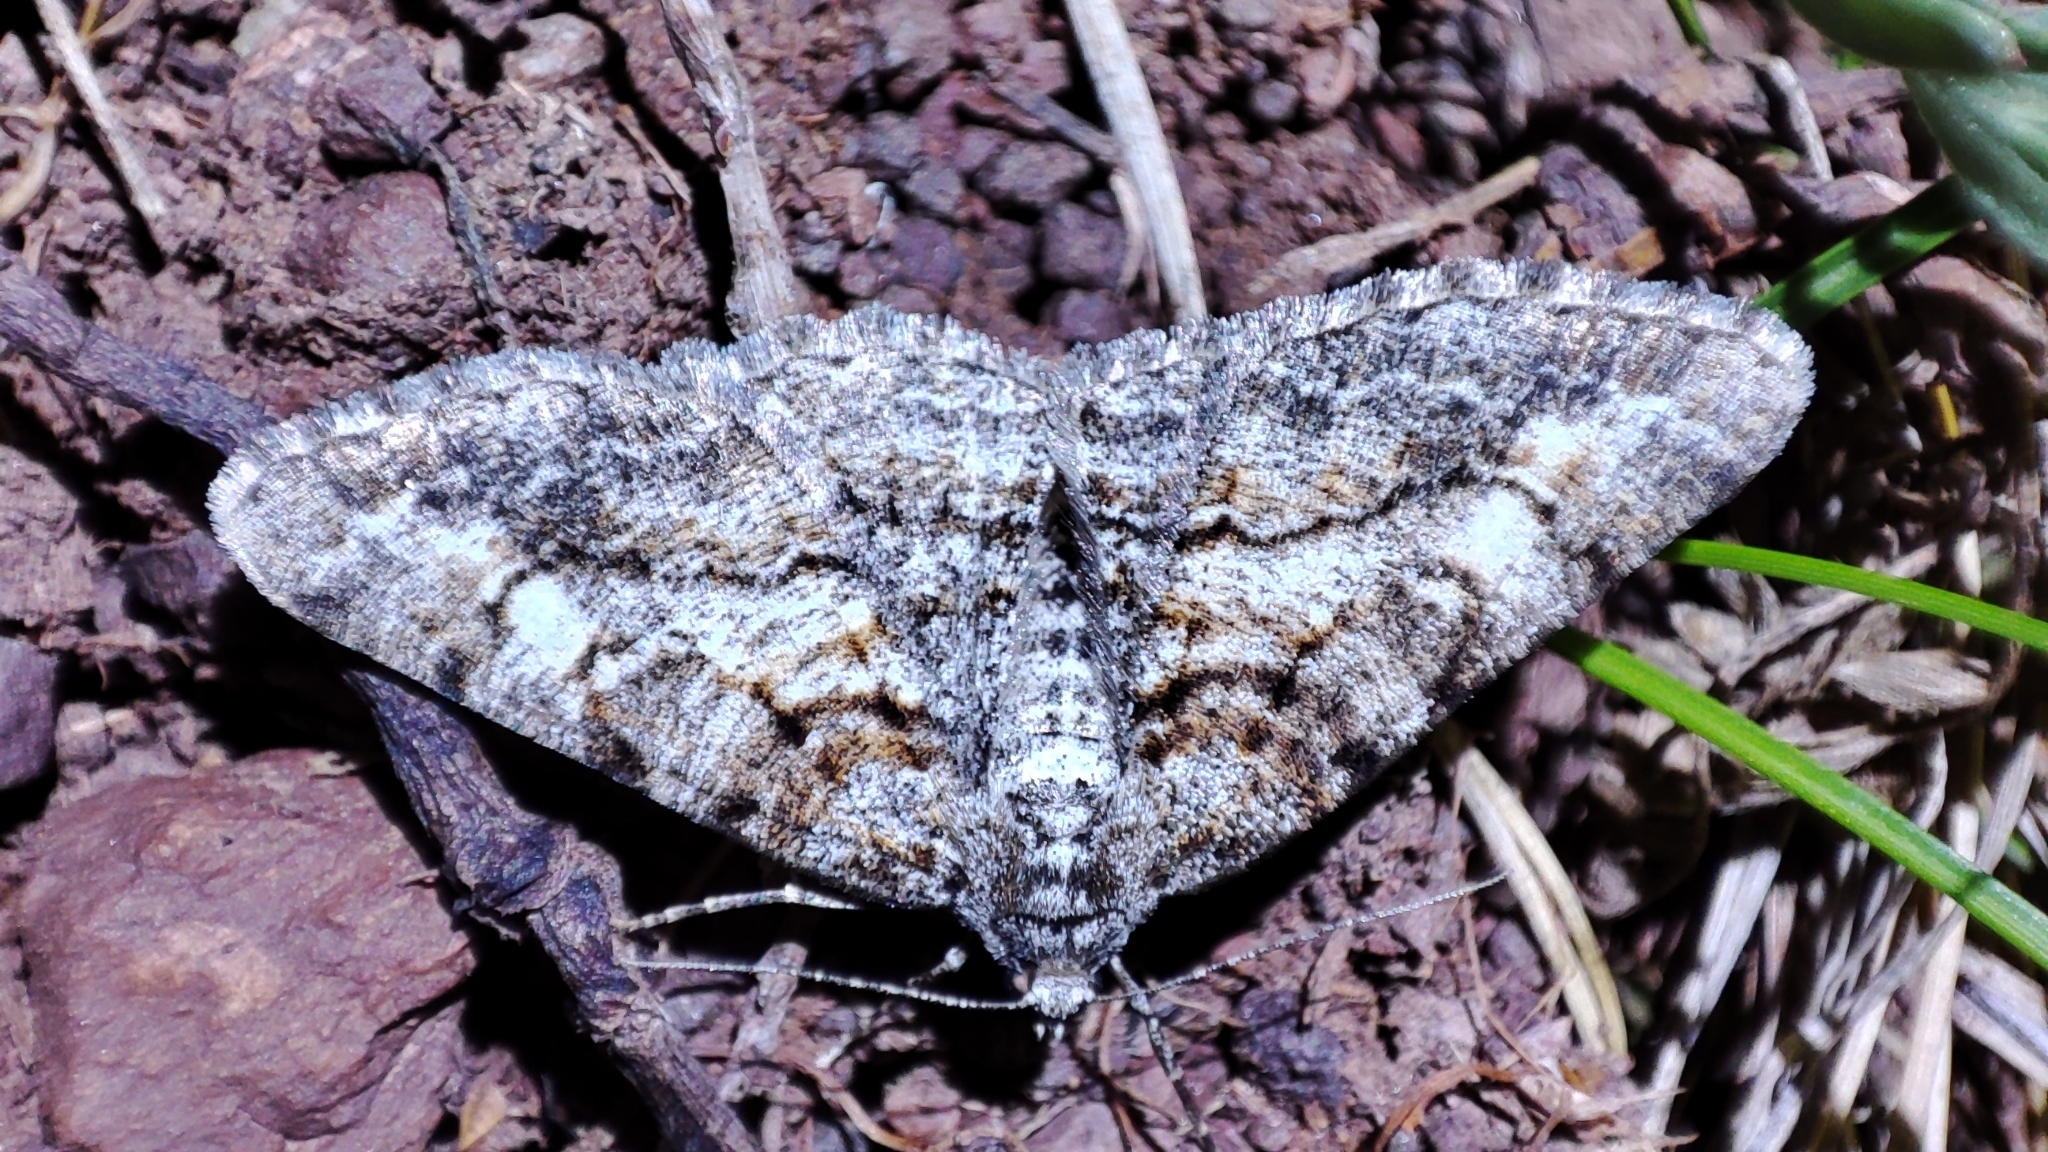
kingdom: Animalia
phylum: Arthropoda
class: Insecta
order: Lepidoptera
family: Geometridae
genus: Cleora
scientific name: Cleora cinctaria
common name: Ringed carpet
